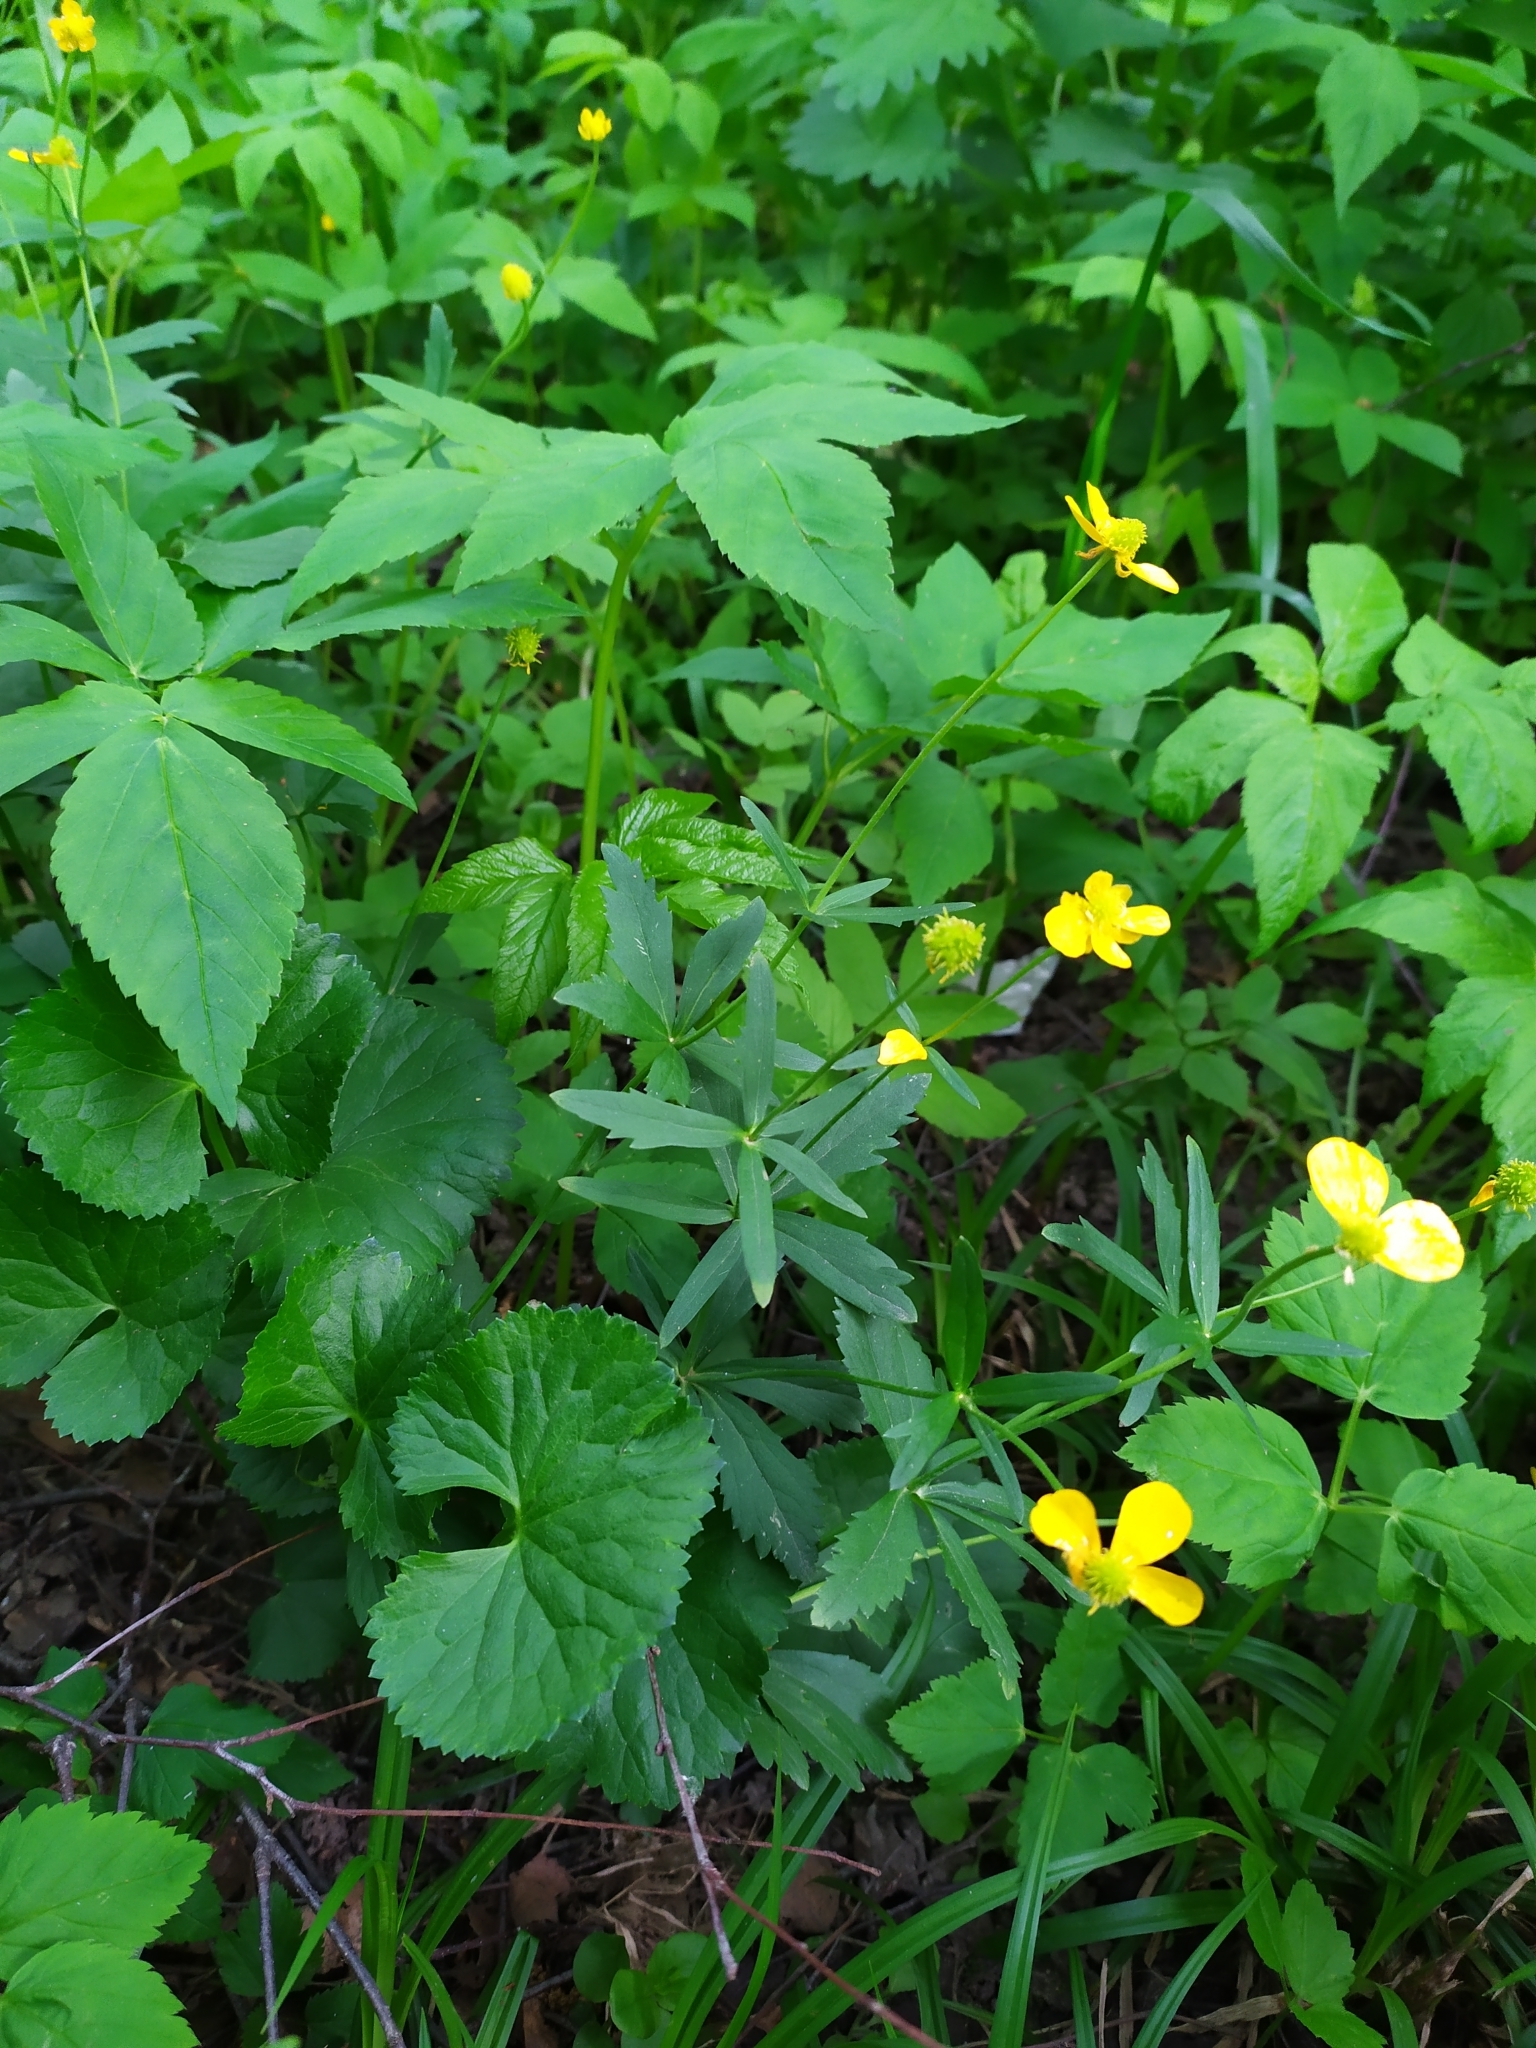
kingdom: Plantae
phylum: Tracheophyta
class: Magnoliopsida
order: Ranunculales
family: Ranunculaceae
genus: Ranunculus
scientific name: Ranunculus cassubicus
